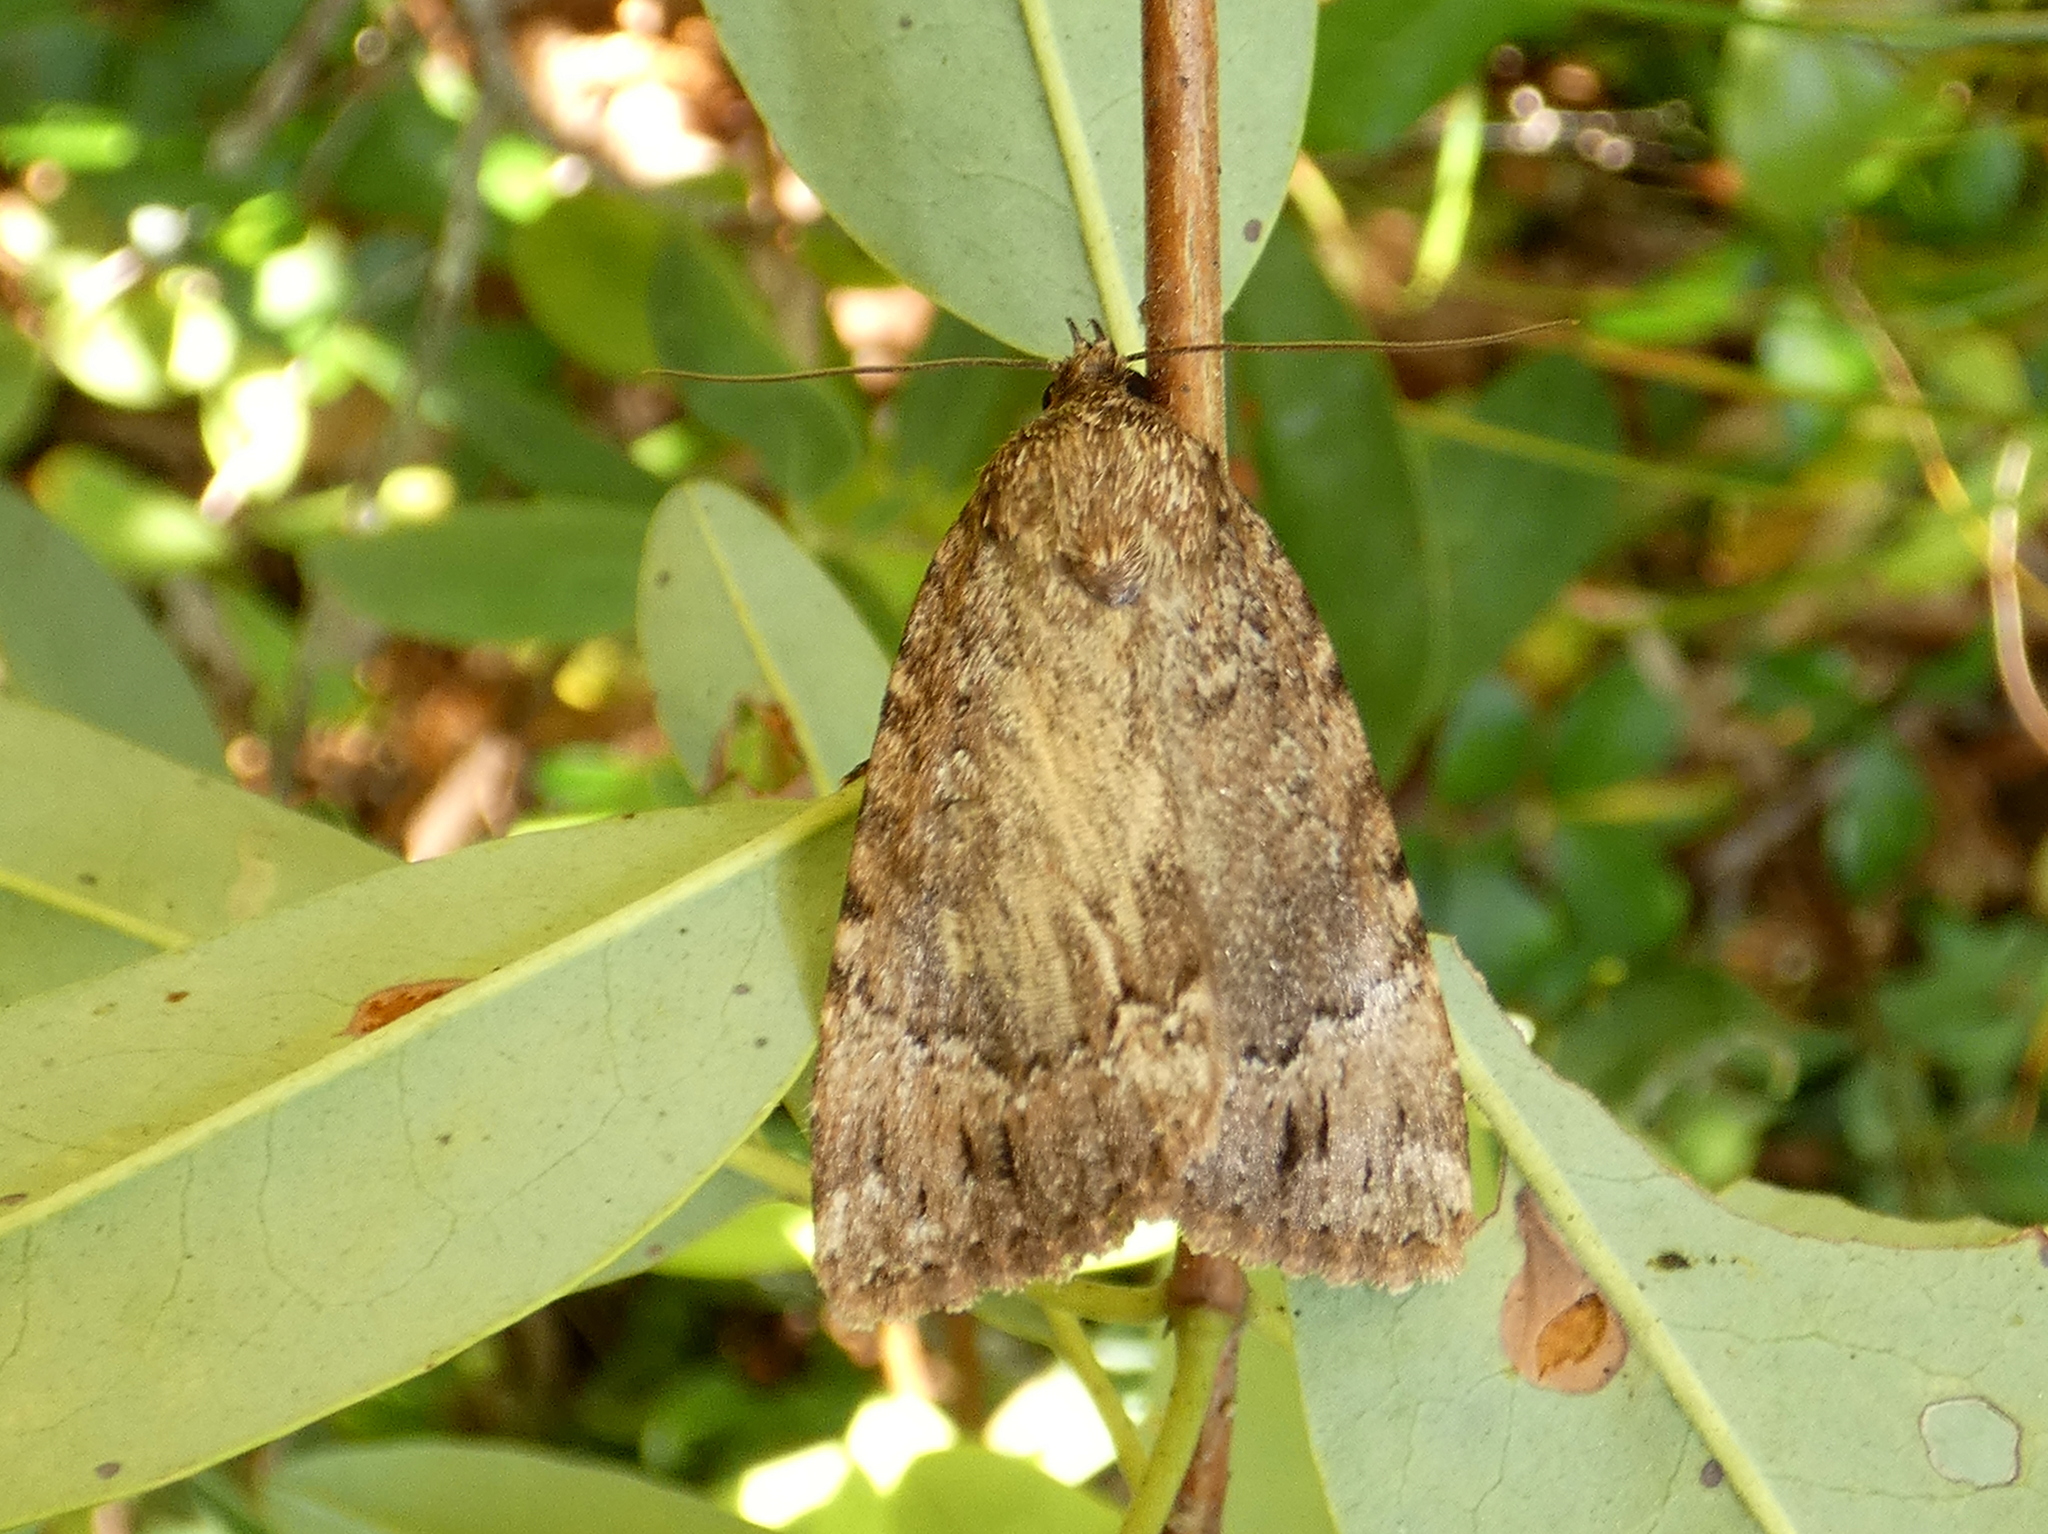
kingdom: Animalia
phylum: Arthropoda
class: Insecta
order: Lepidoptera
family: Noctuidae
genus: Amphipyra
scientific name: Amphipyra pyramidoides
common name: American copper underwing
